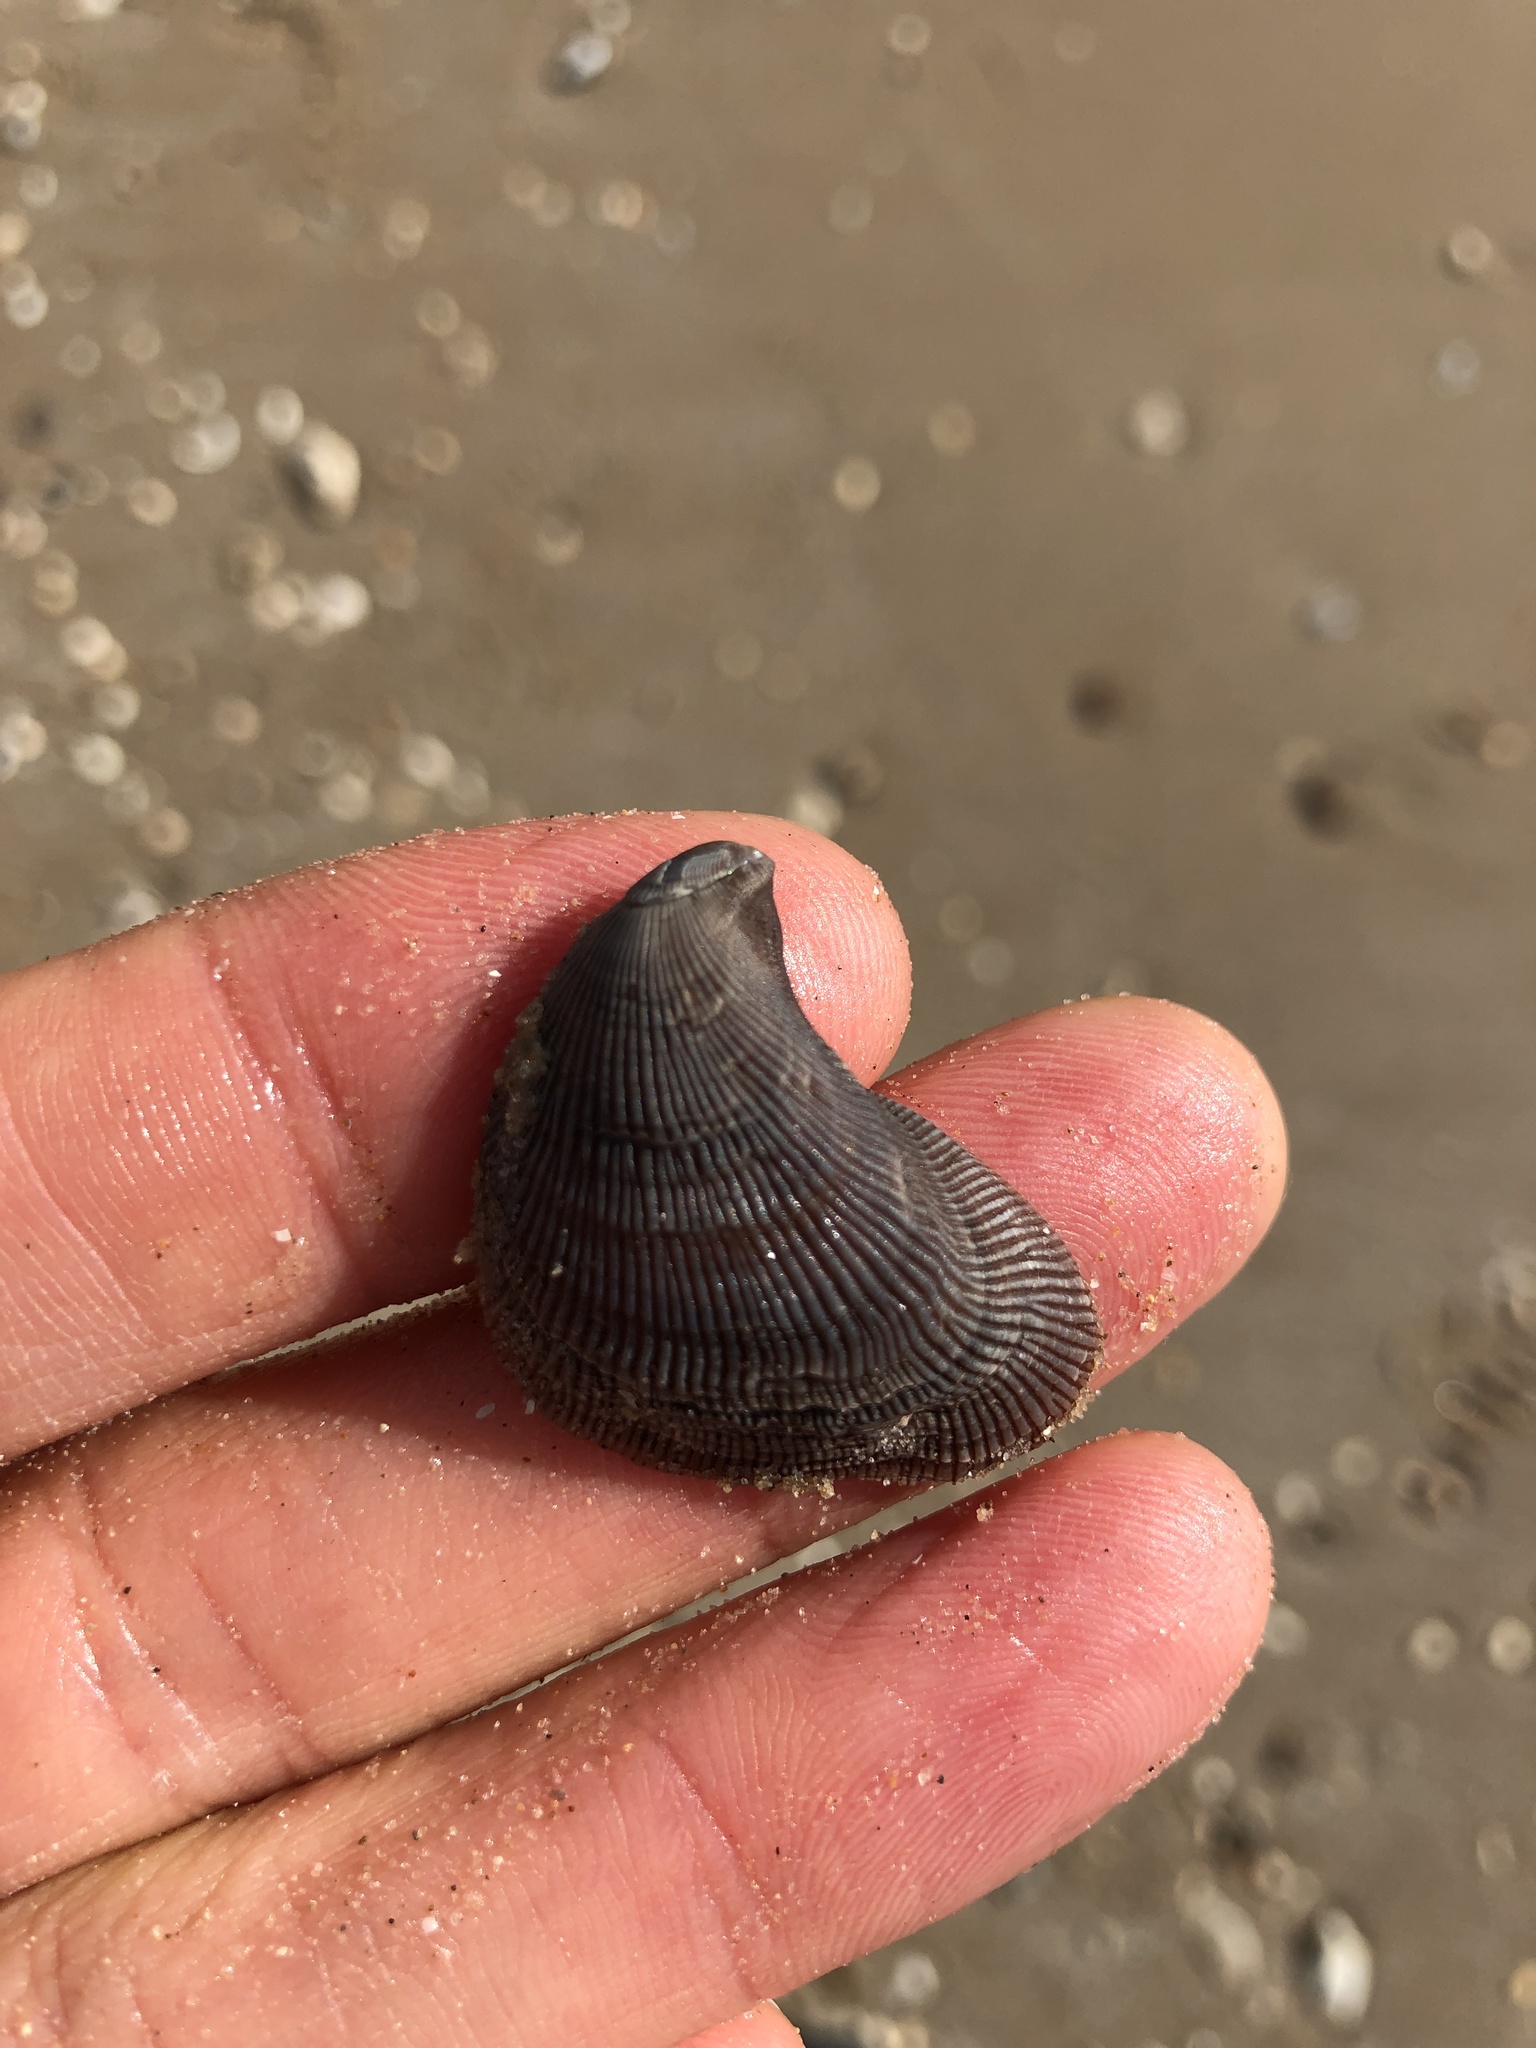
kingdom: Animalia
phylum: Mollusca
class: Bivalvia
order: Mytilida
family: Mytilidae
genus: Ischadium
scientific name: Ischadium recurvum
